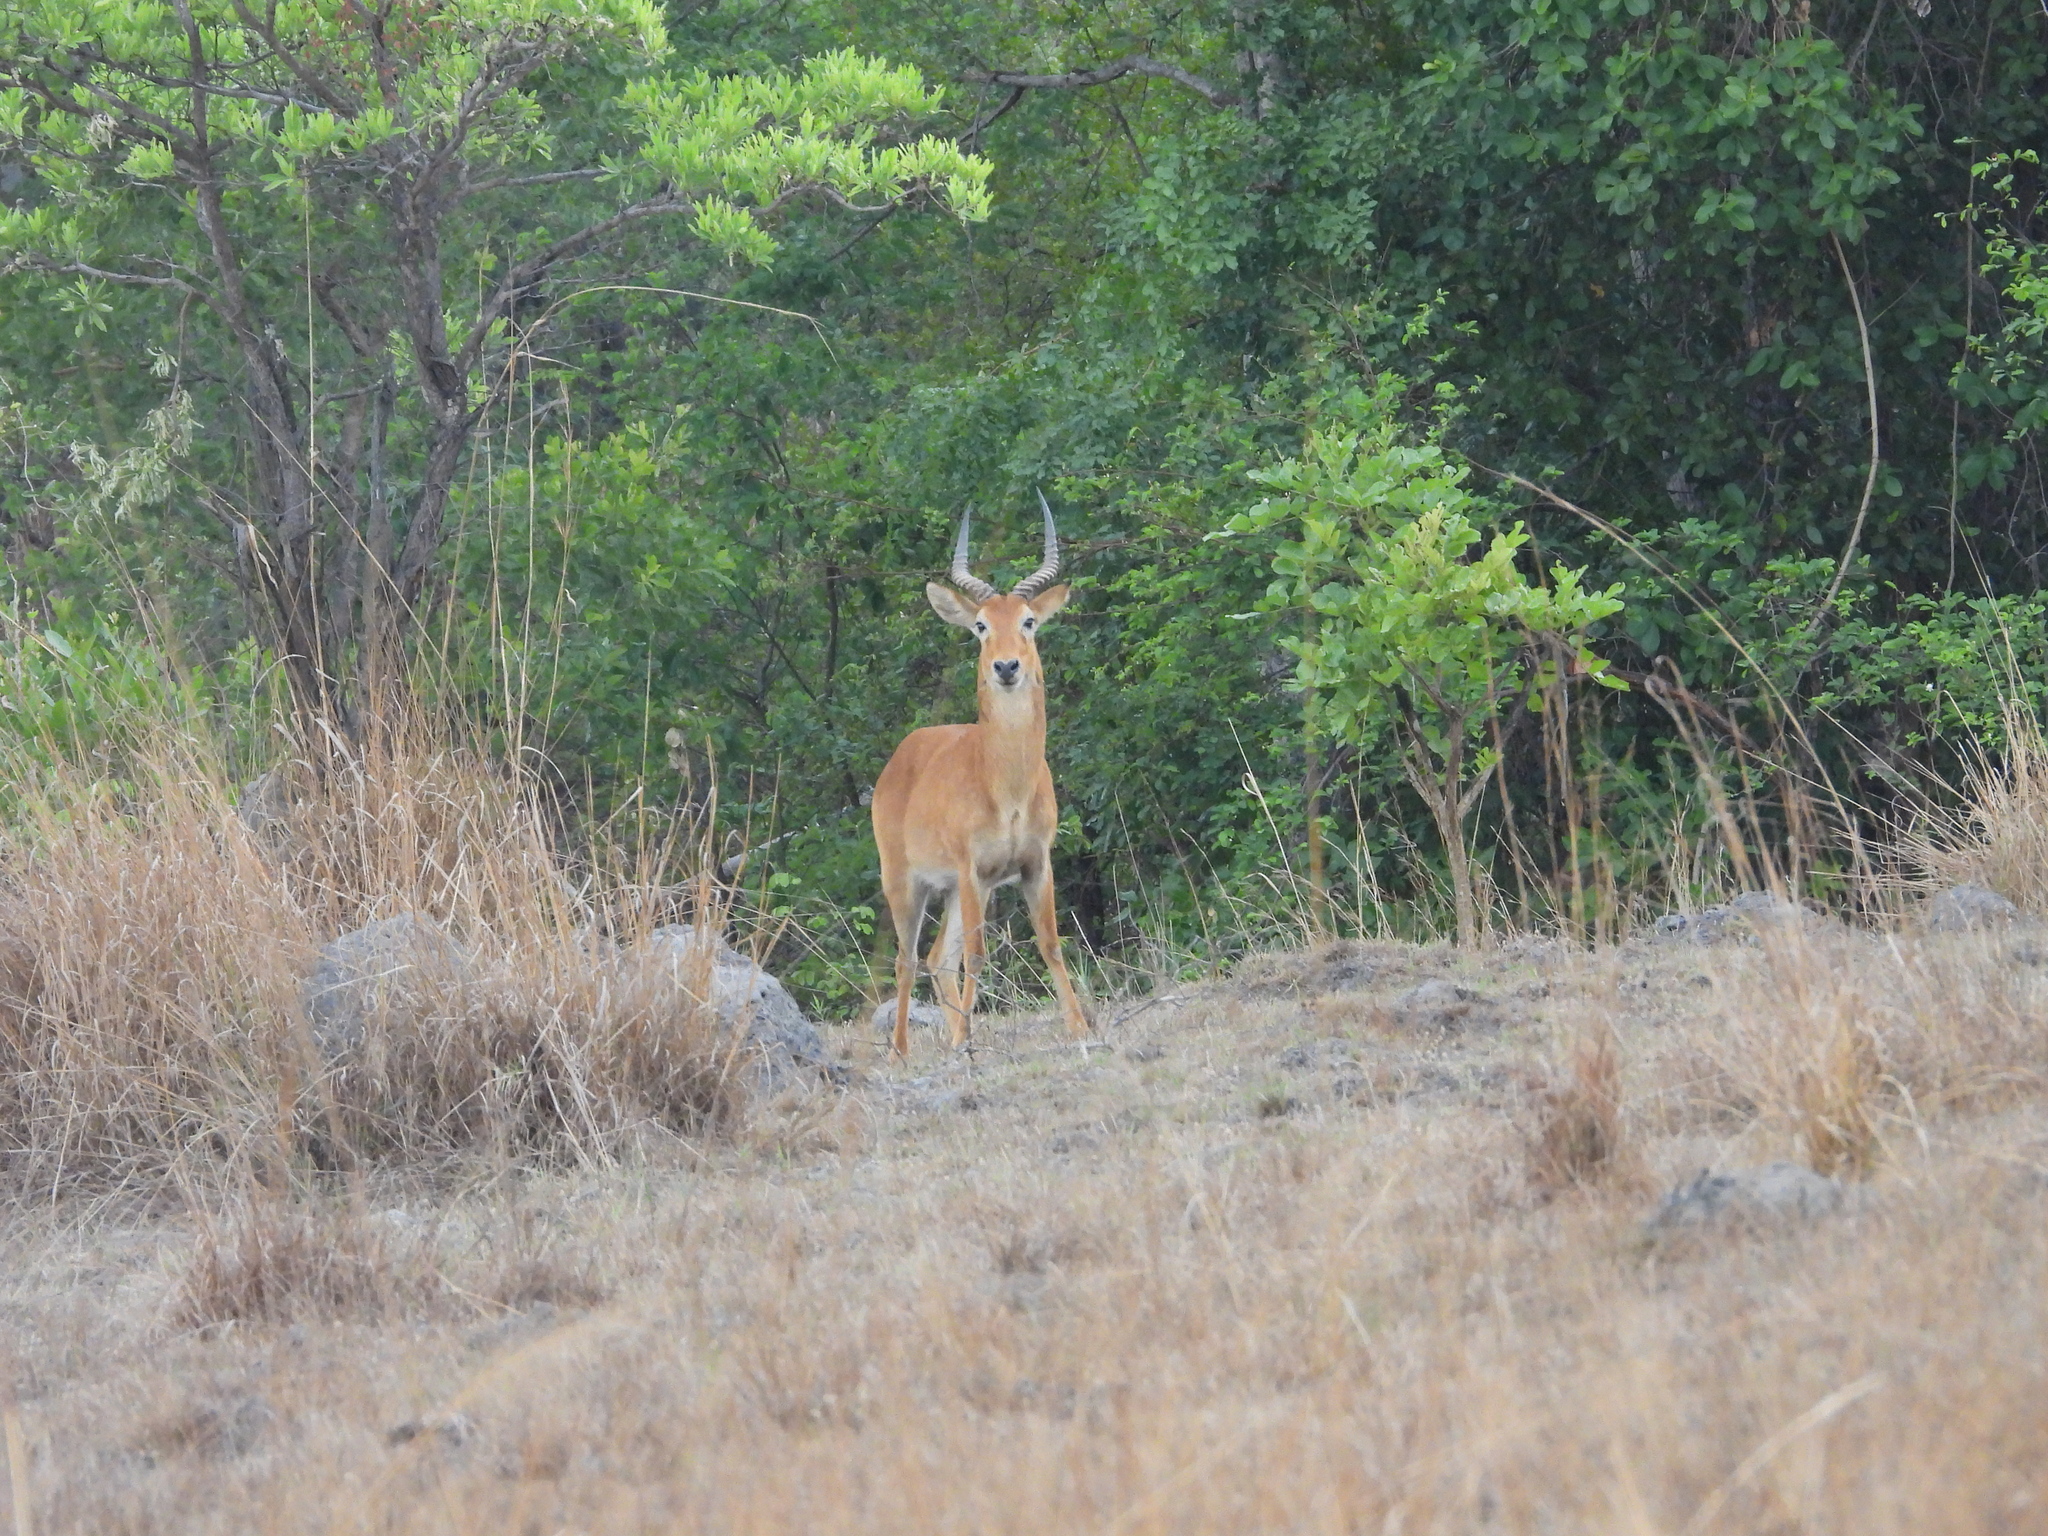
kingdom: Animalia
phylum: Chordata
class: Mammalia
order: Artiodactyla
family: Bovidae
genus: Kobus
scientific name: Kobus vardonii
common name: Puku
